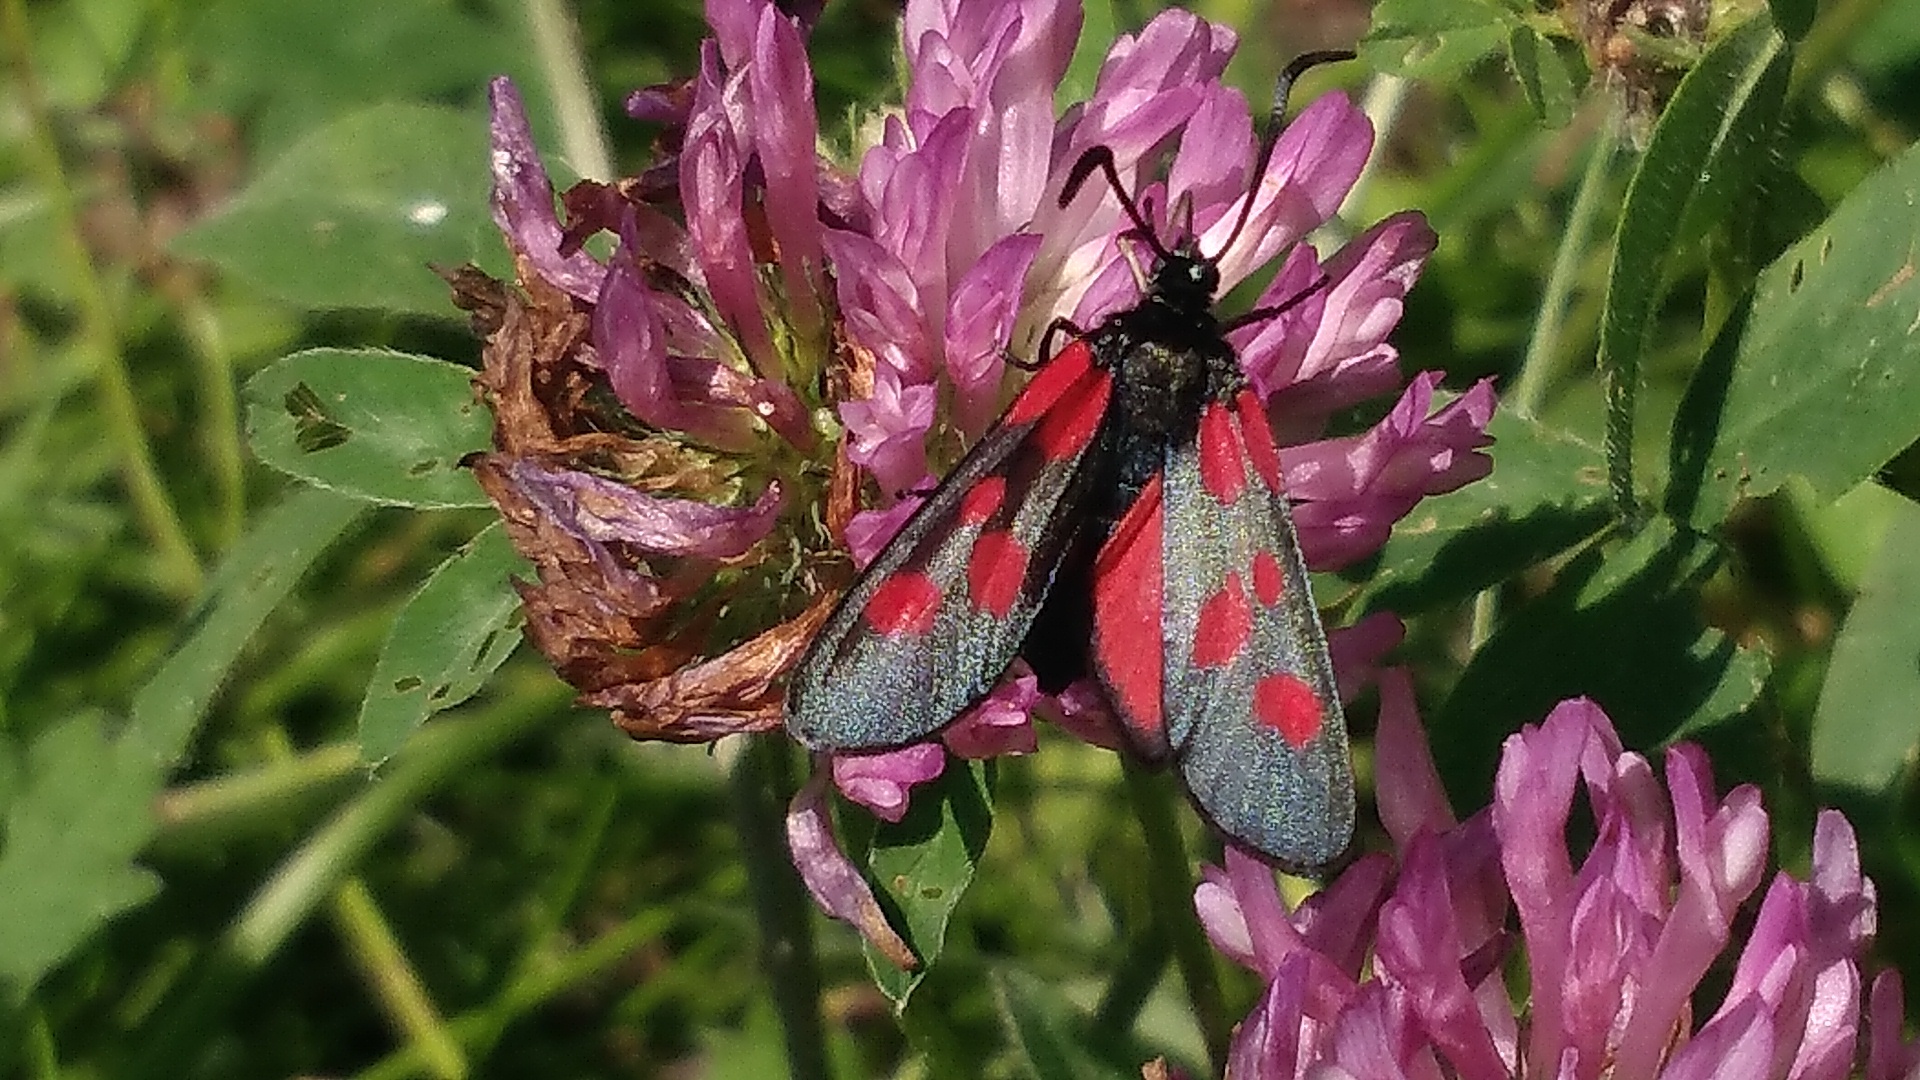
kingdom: Animalia
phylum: Arthropoda
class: Insecta
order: Lepidoptera
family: Zygaenidae
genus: Zygaena
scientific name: Zygaena viciae
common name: New forest burnet
